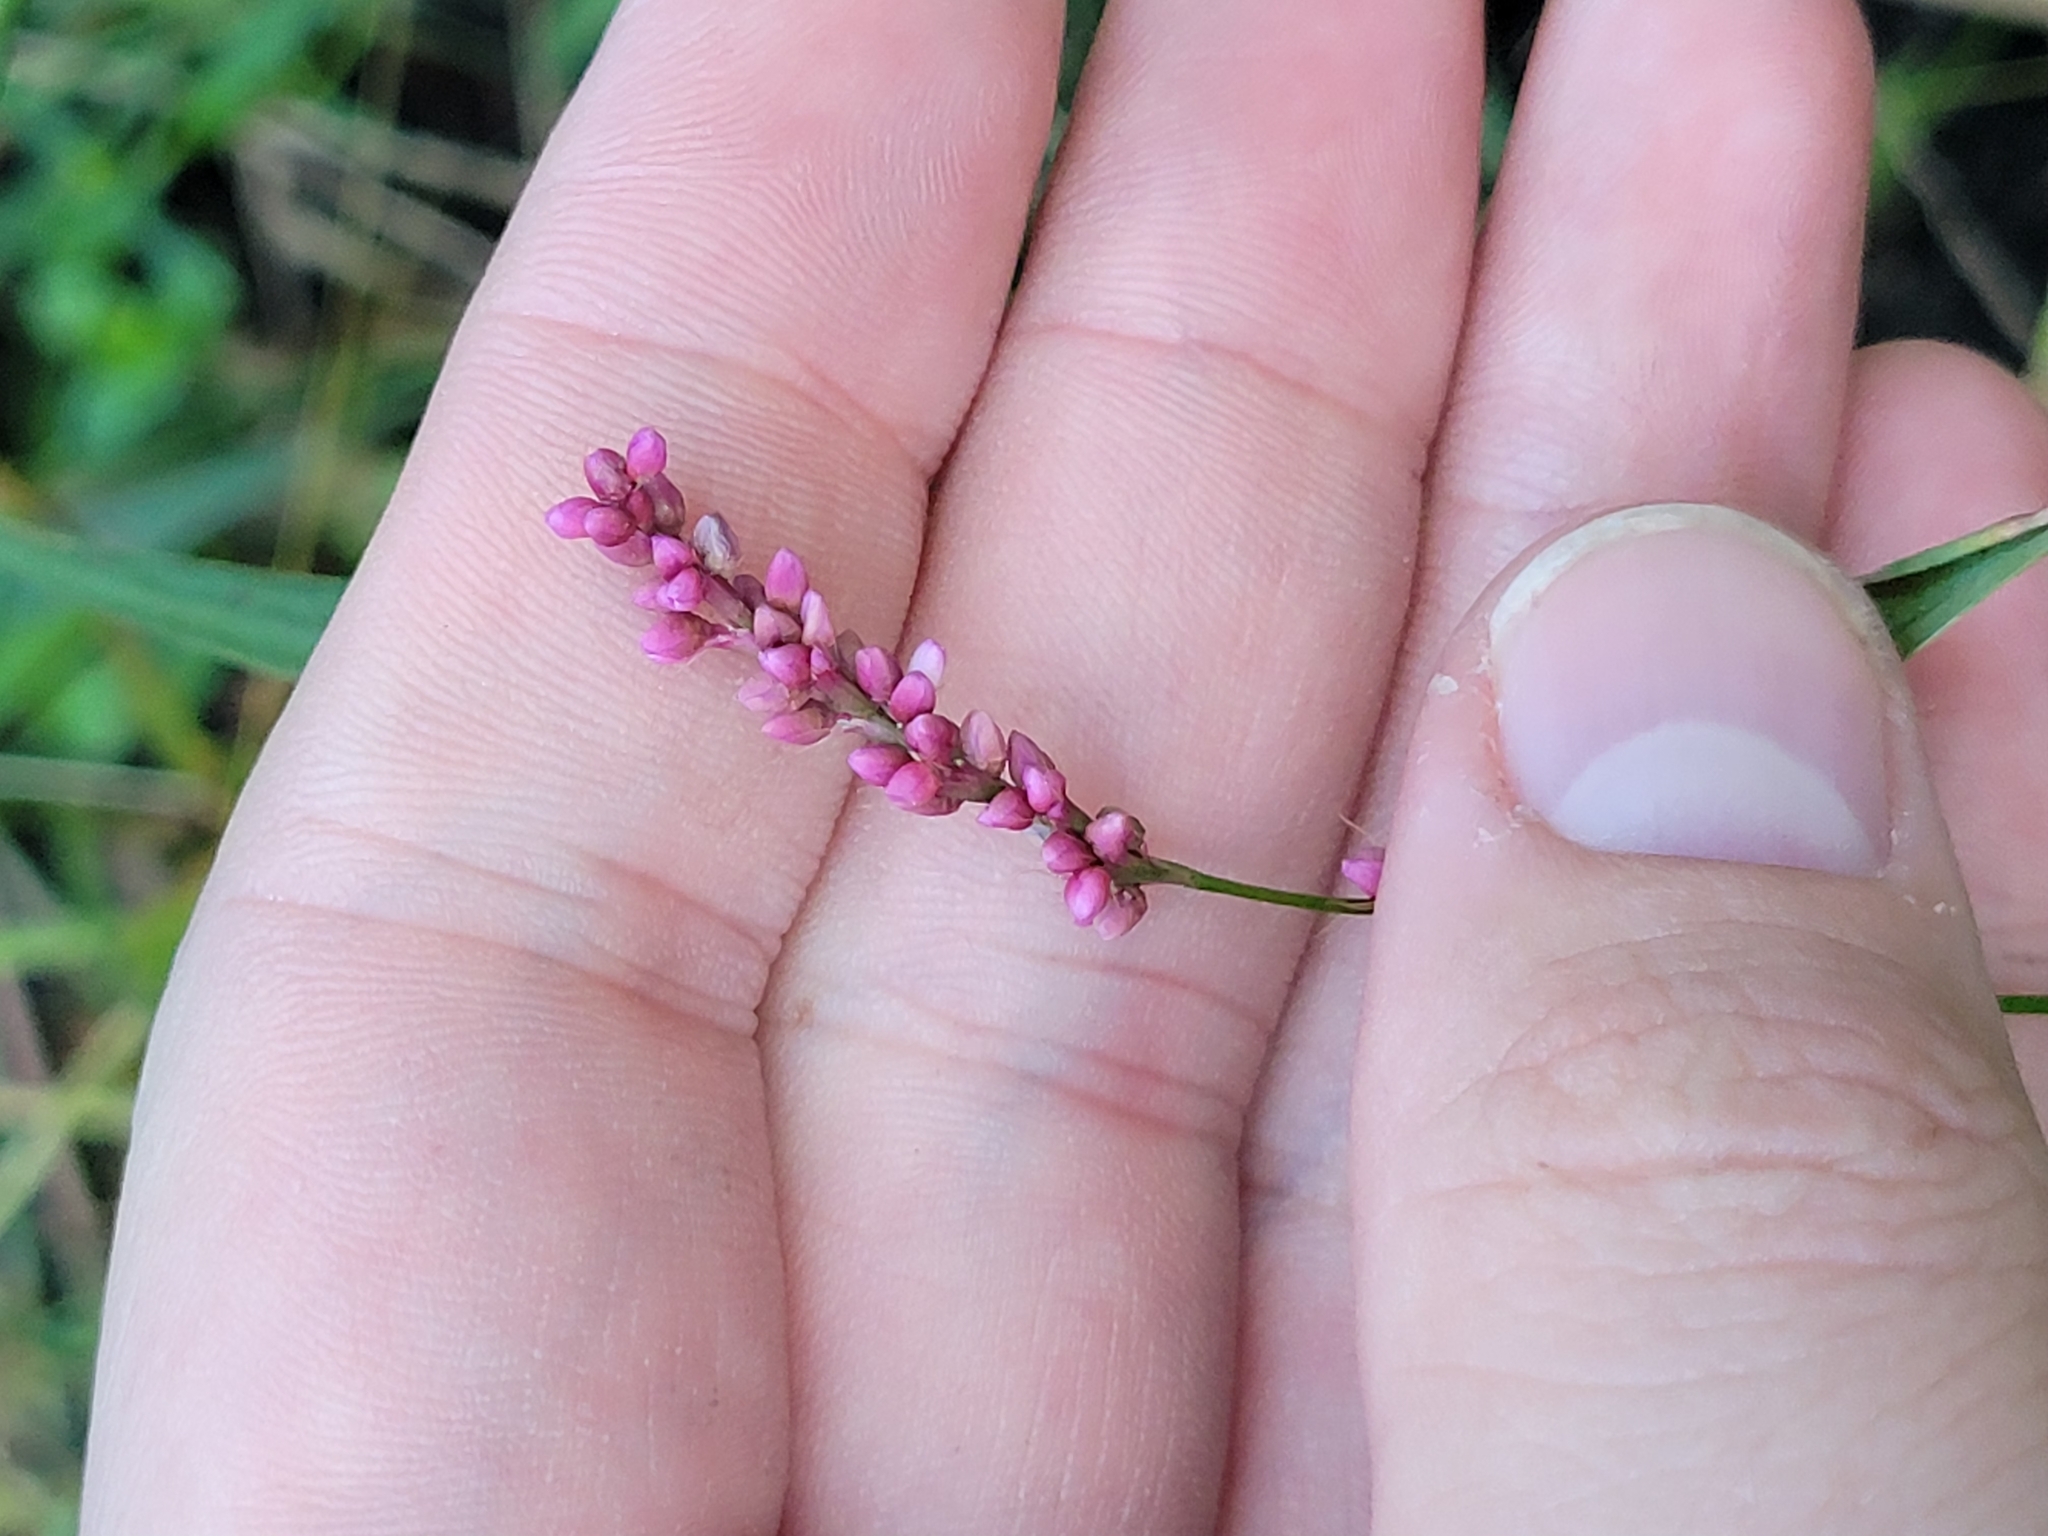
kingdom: Plantae
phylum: Tracheophyta
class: Magnoliopsida
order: Caryophyllales
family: Polygonaceae
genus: Persicaria
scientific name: Persicaria longiseta
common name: Bristly lady's-thumb
